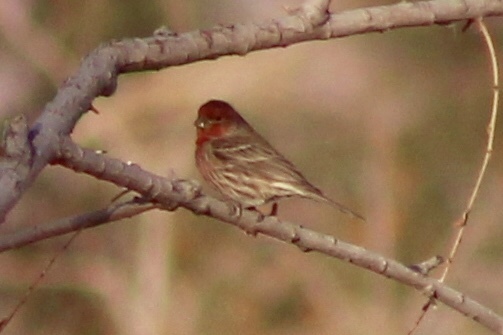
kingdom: Animalia
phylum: Chordata
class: Aves
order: Passeriformes
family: Fringillidae
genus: Haemorhous
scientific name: Haemorhous mexicanus
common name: House finch
